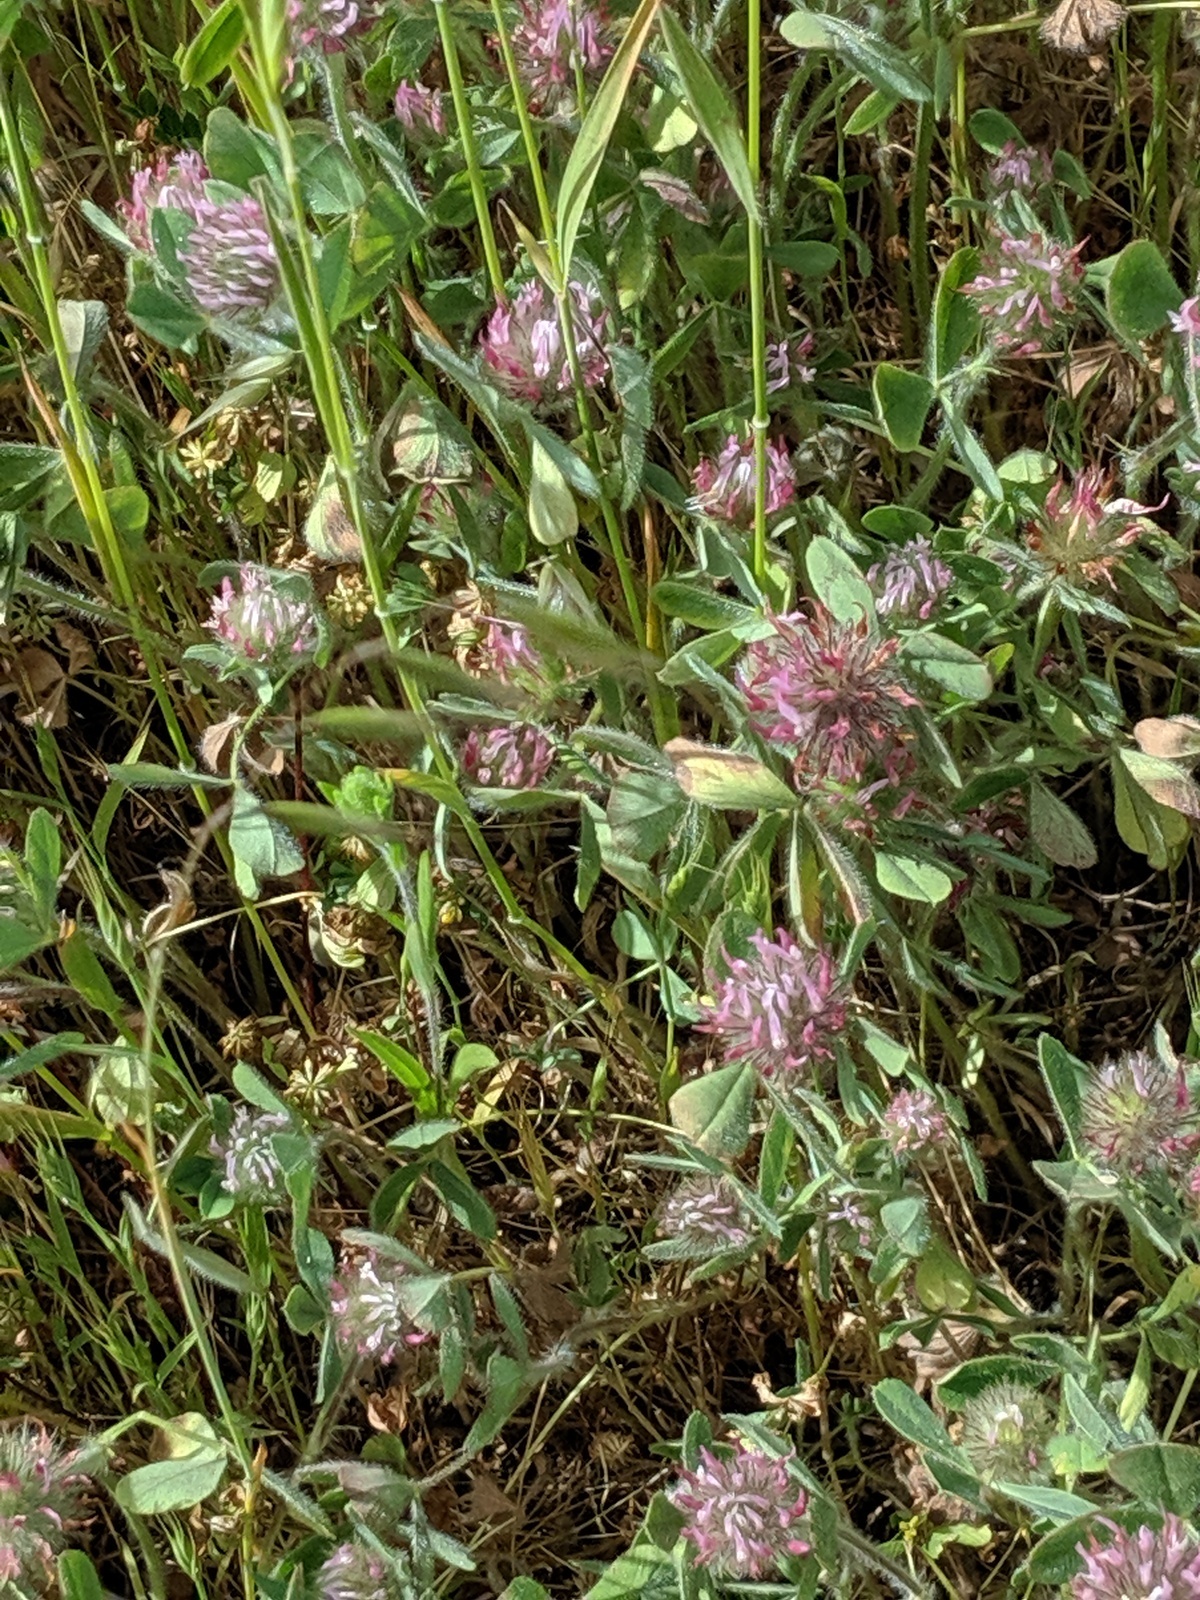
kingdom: Plantae
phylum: Tracheophyta
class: Magnoliopsida
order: Fabales
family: Fabaceae
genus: Trifolium
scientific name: Trifolium hirtum
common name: Rose clover
